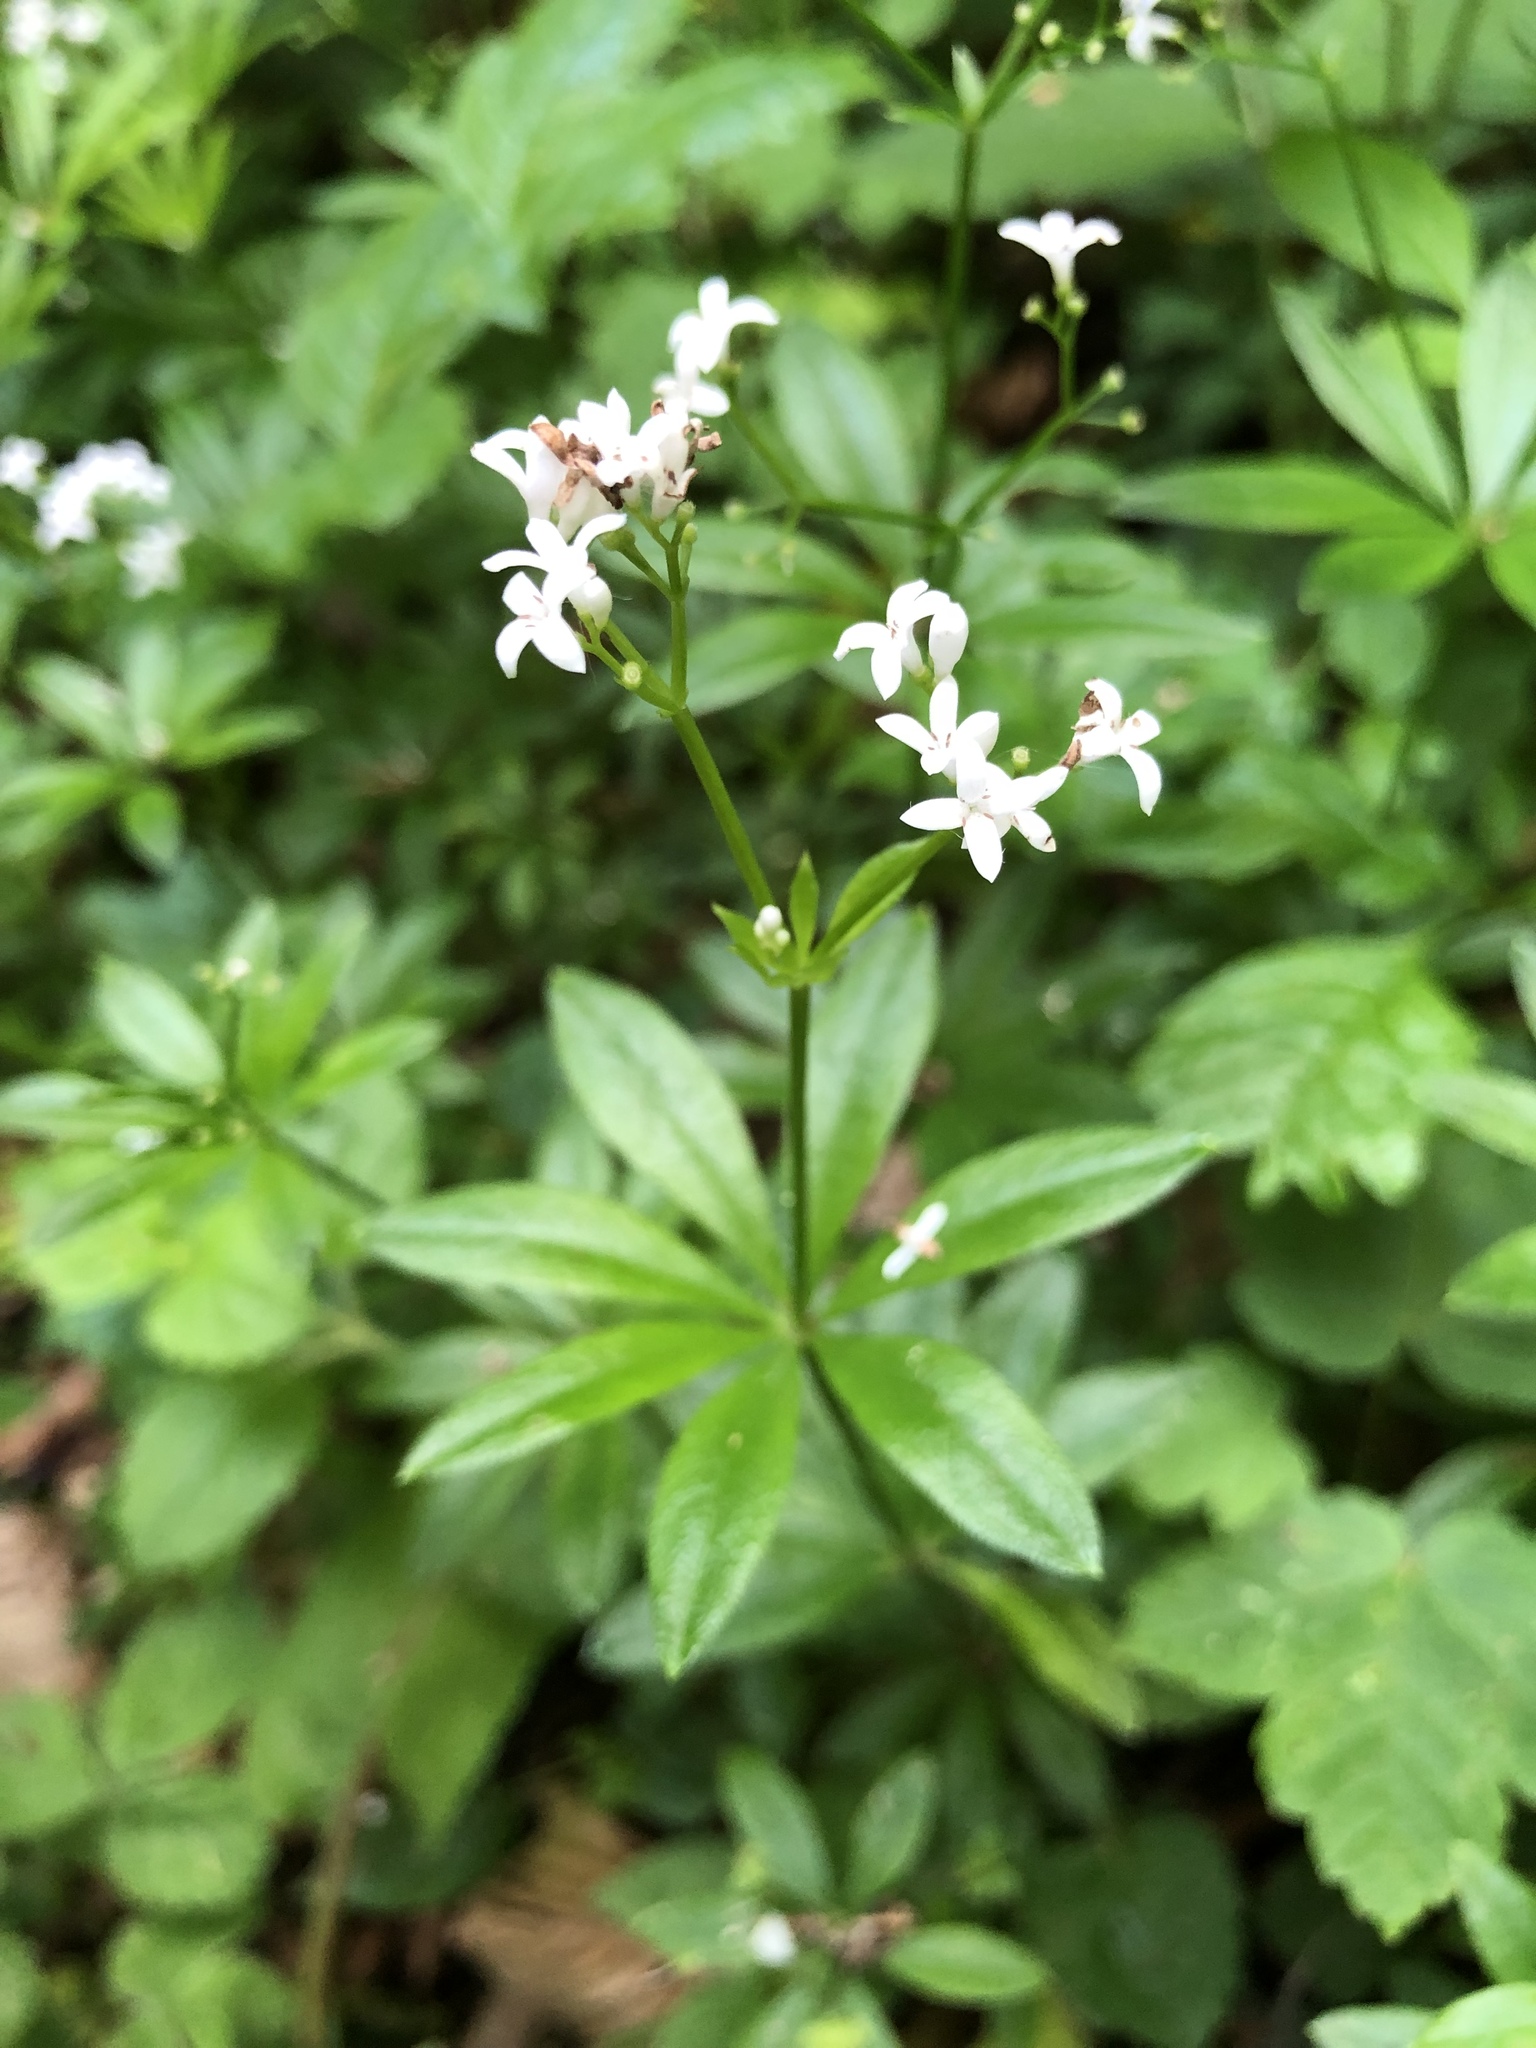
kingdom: Plantae
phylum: Tracheophyta
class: Magnoliopsida
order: Gentianales
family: Rubiaceae
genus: Galium
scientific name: Galium odoratum
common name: Sweet woodruff
